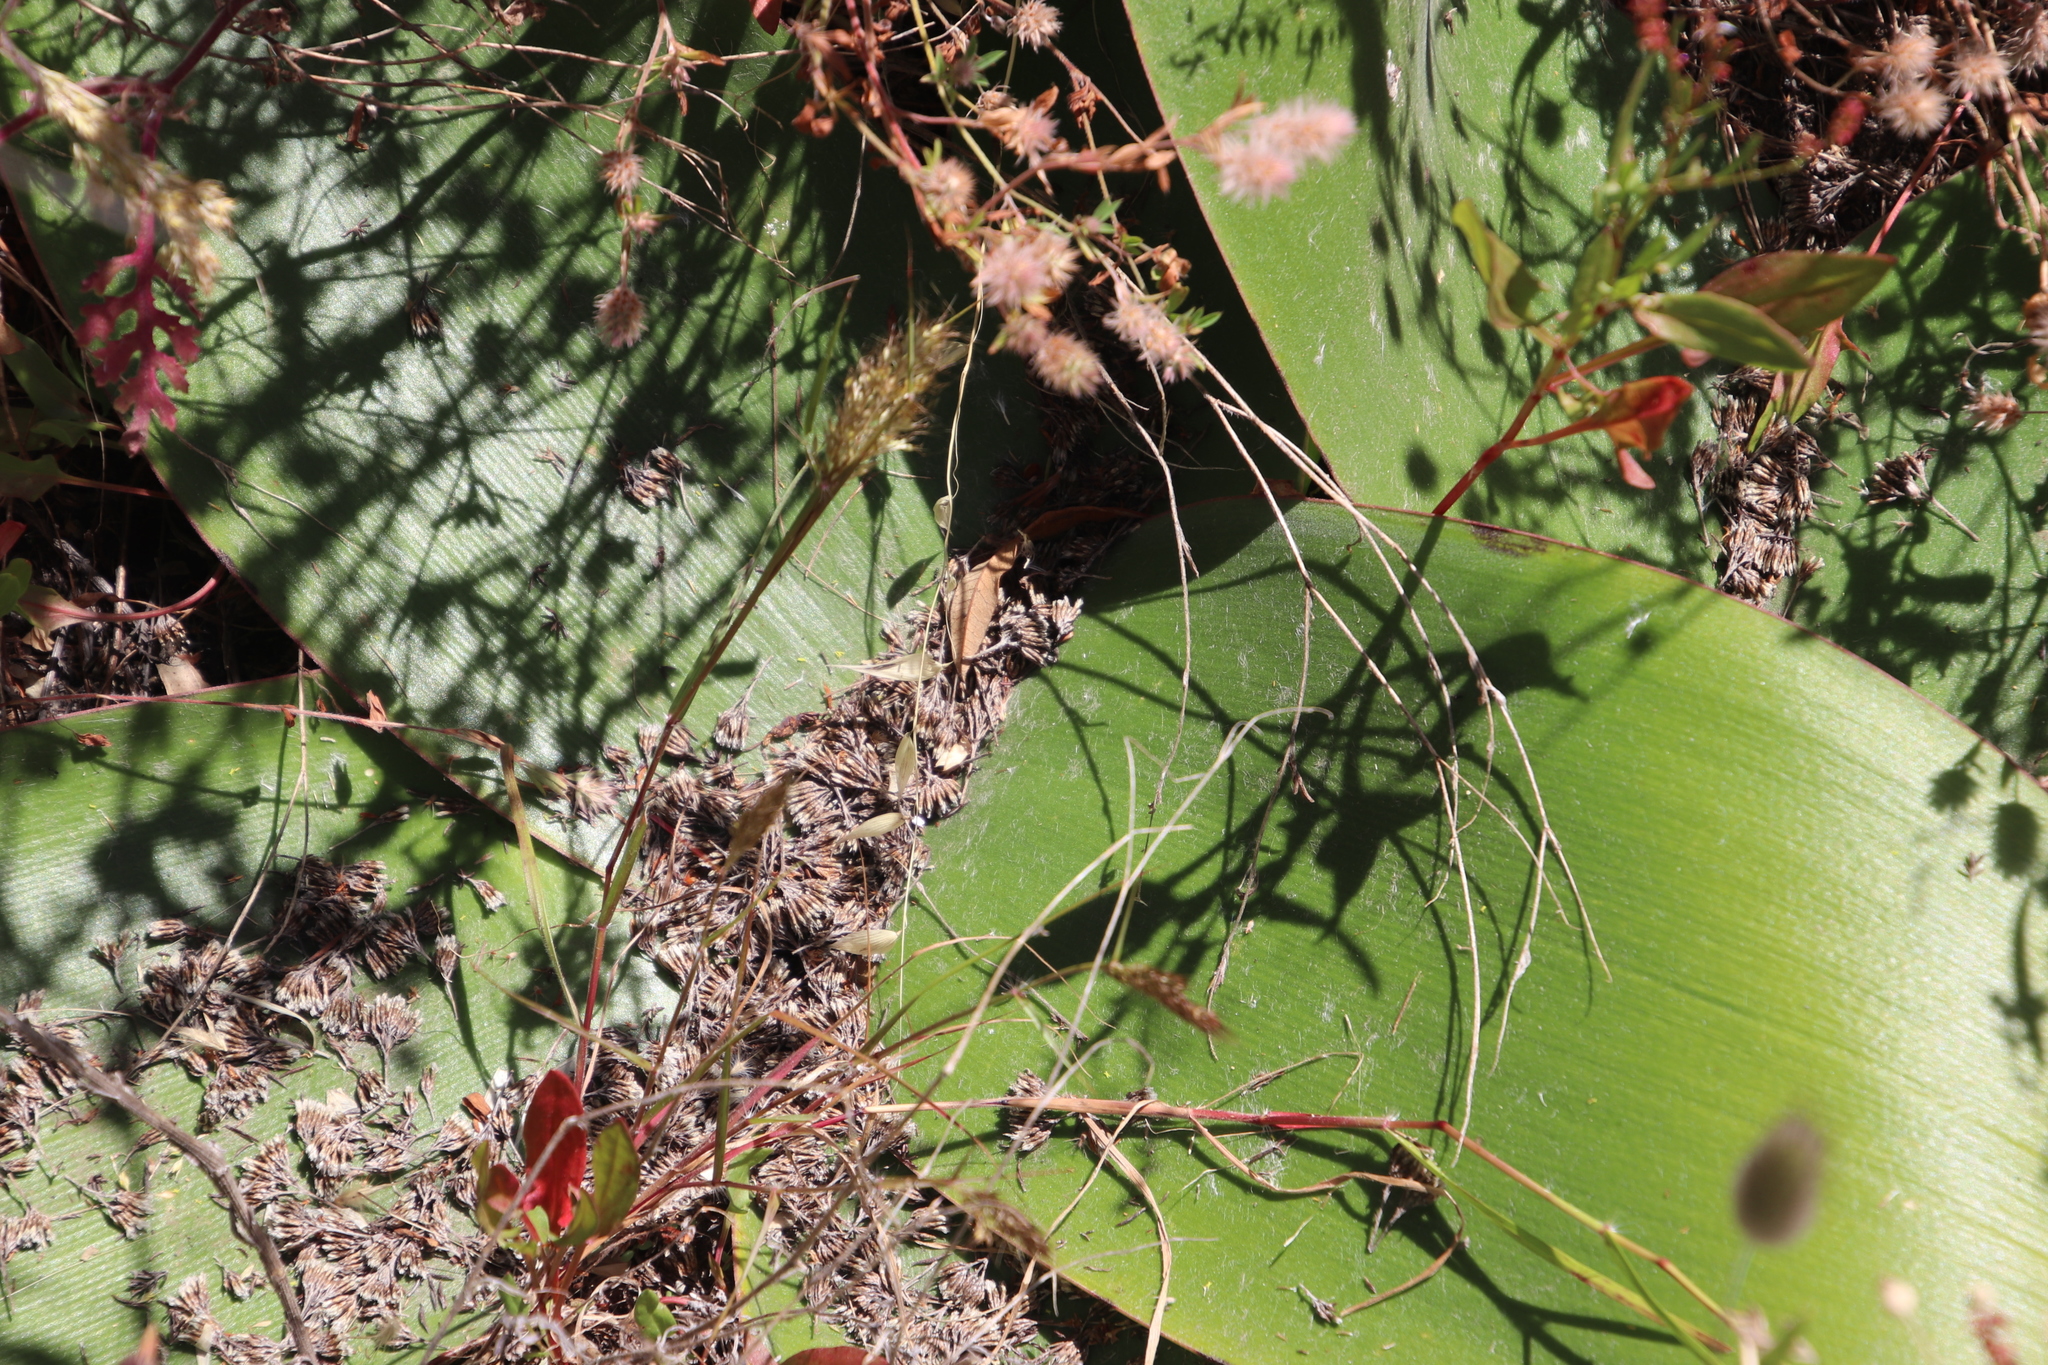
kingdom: Plantae
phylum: Tracheophyta
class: Liliopsida
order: Asparagales
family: Amaryllidaceae
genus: Brunsvigia
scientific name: Brunsvigia orientalis
